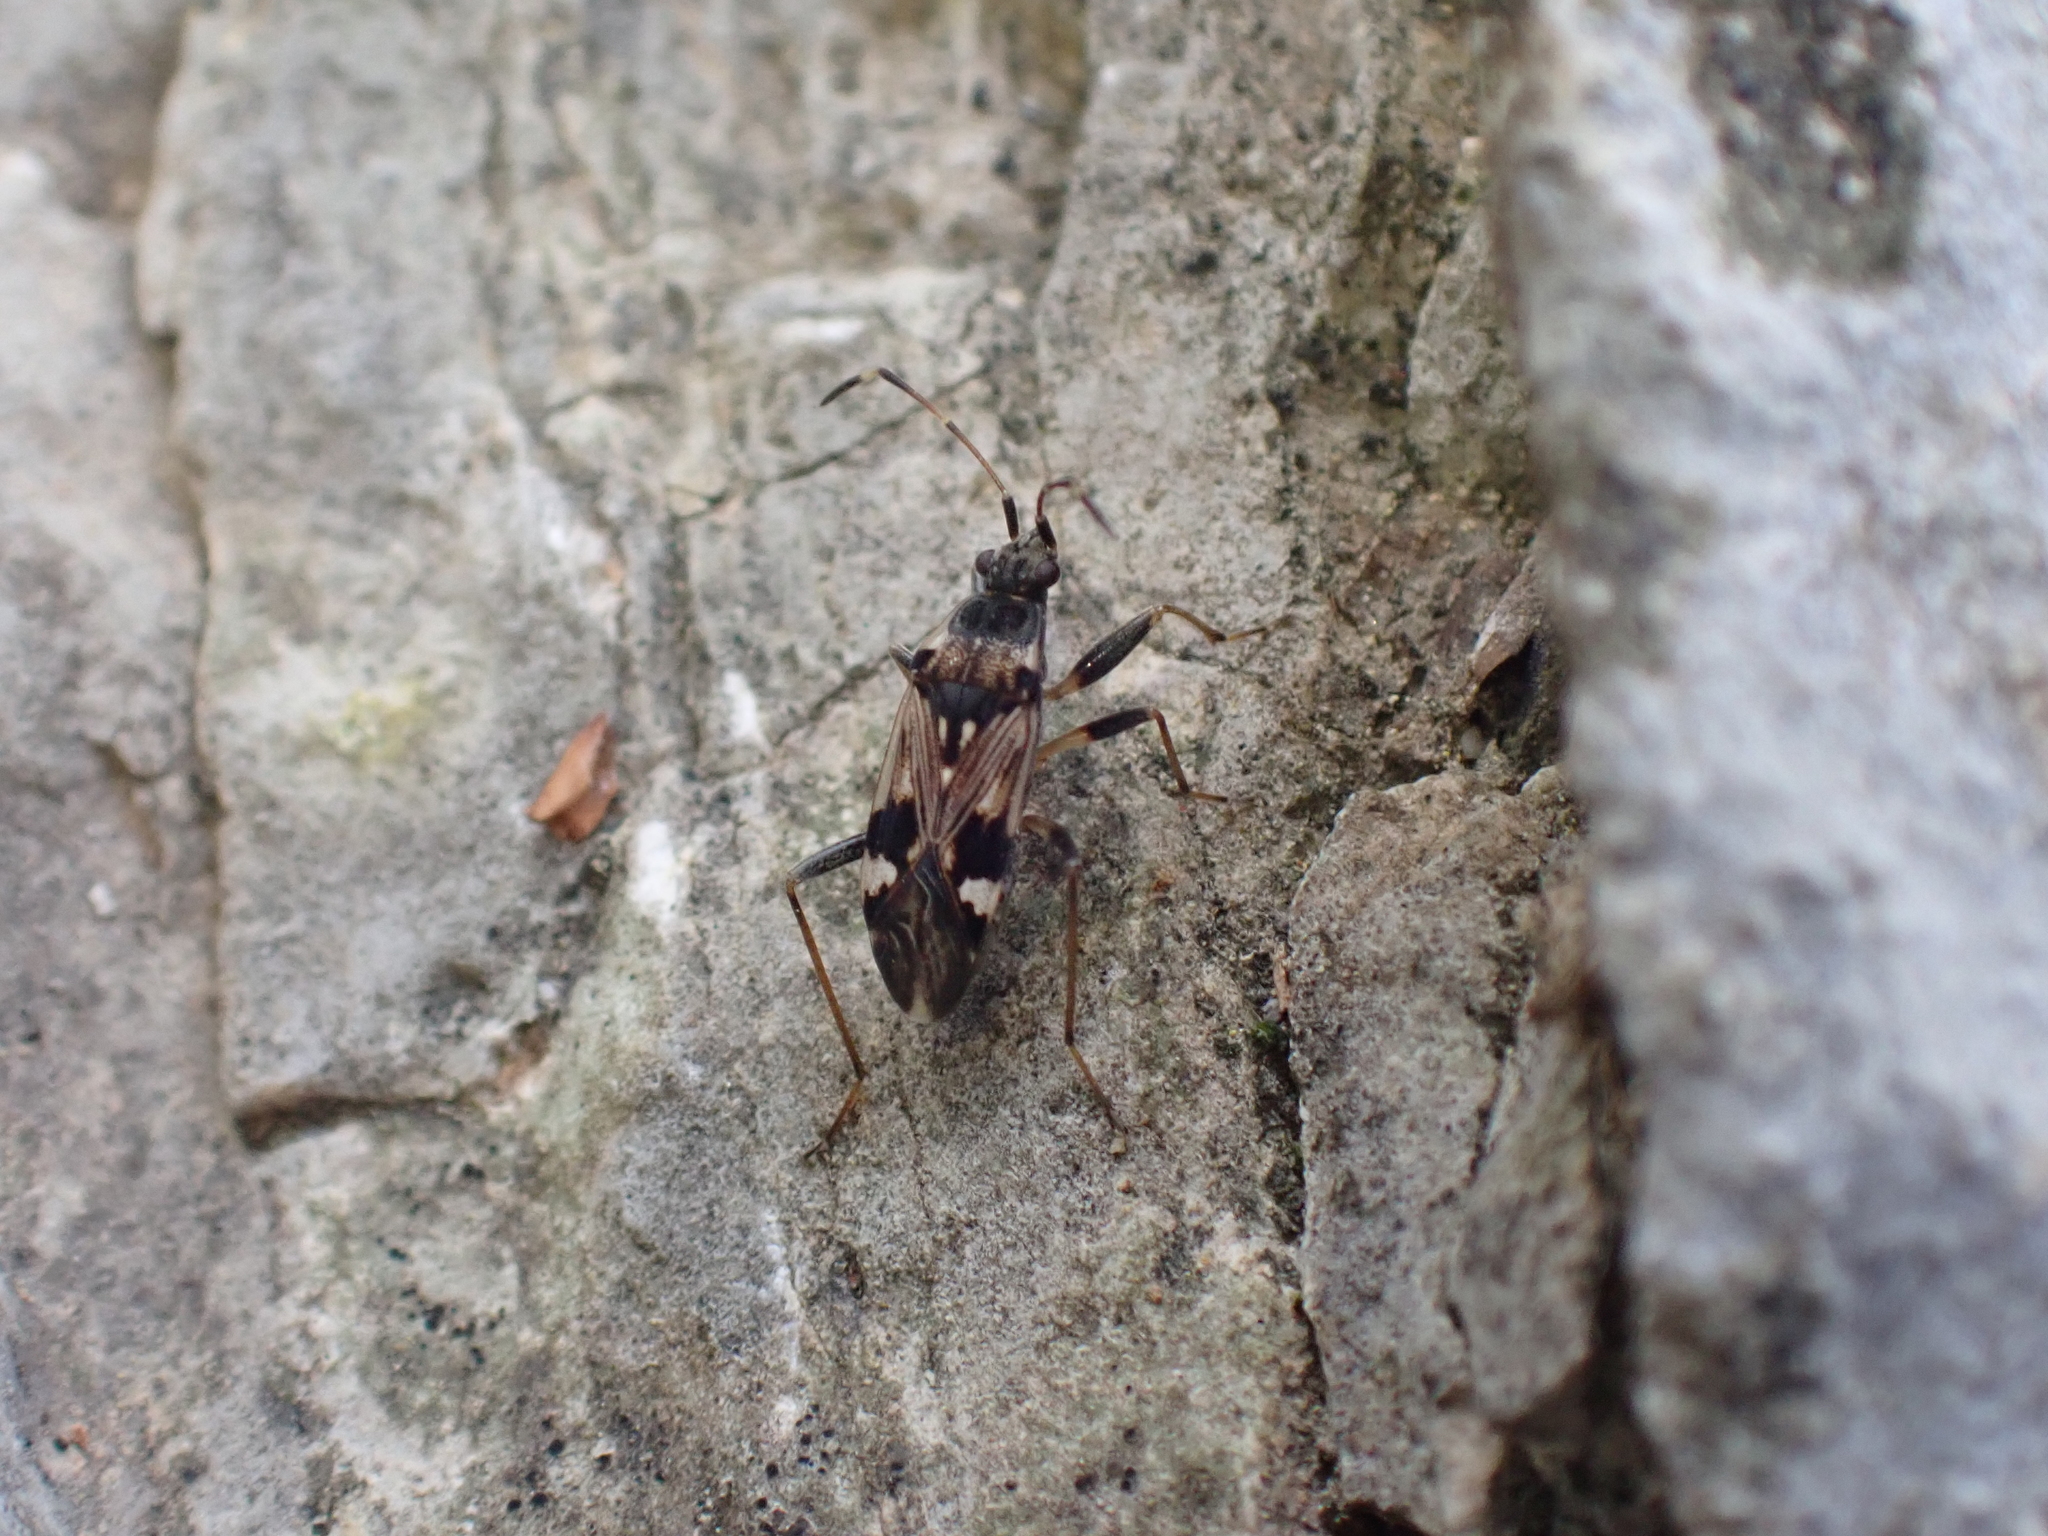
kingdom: Animalia
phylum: Arthropoda
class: Insecta
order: Hemiptera
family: Rhyparochromidae
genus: Beosus
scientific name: Beosus maritimus
